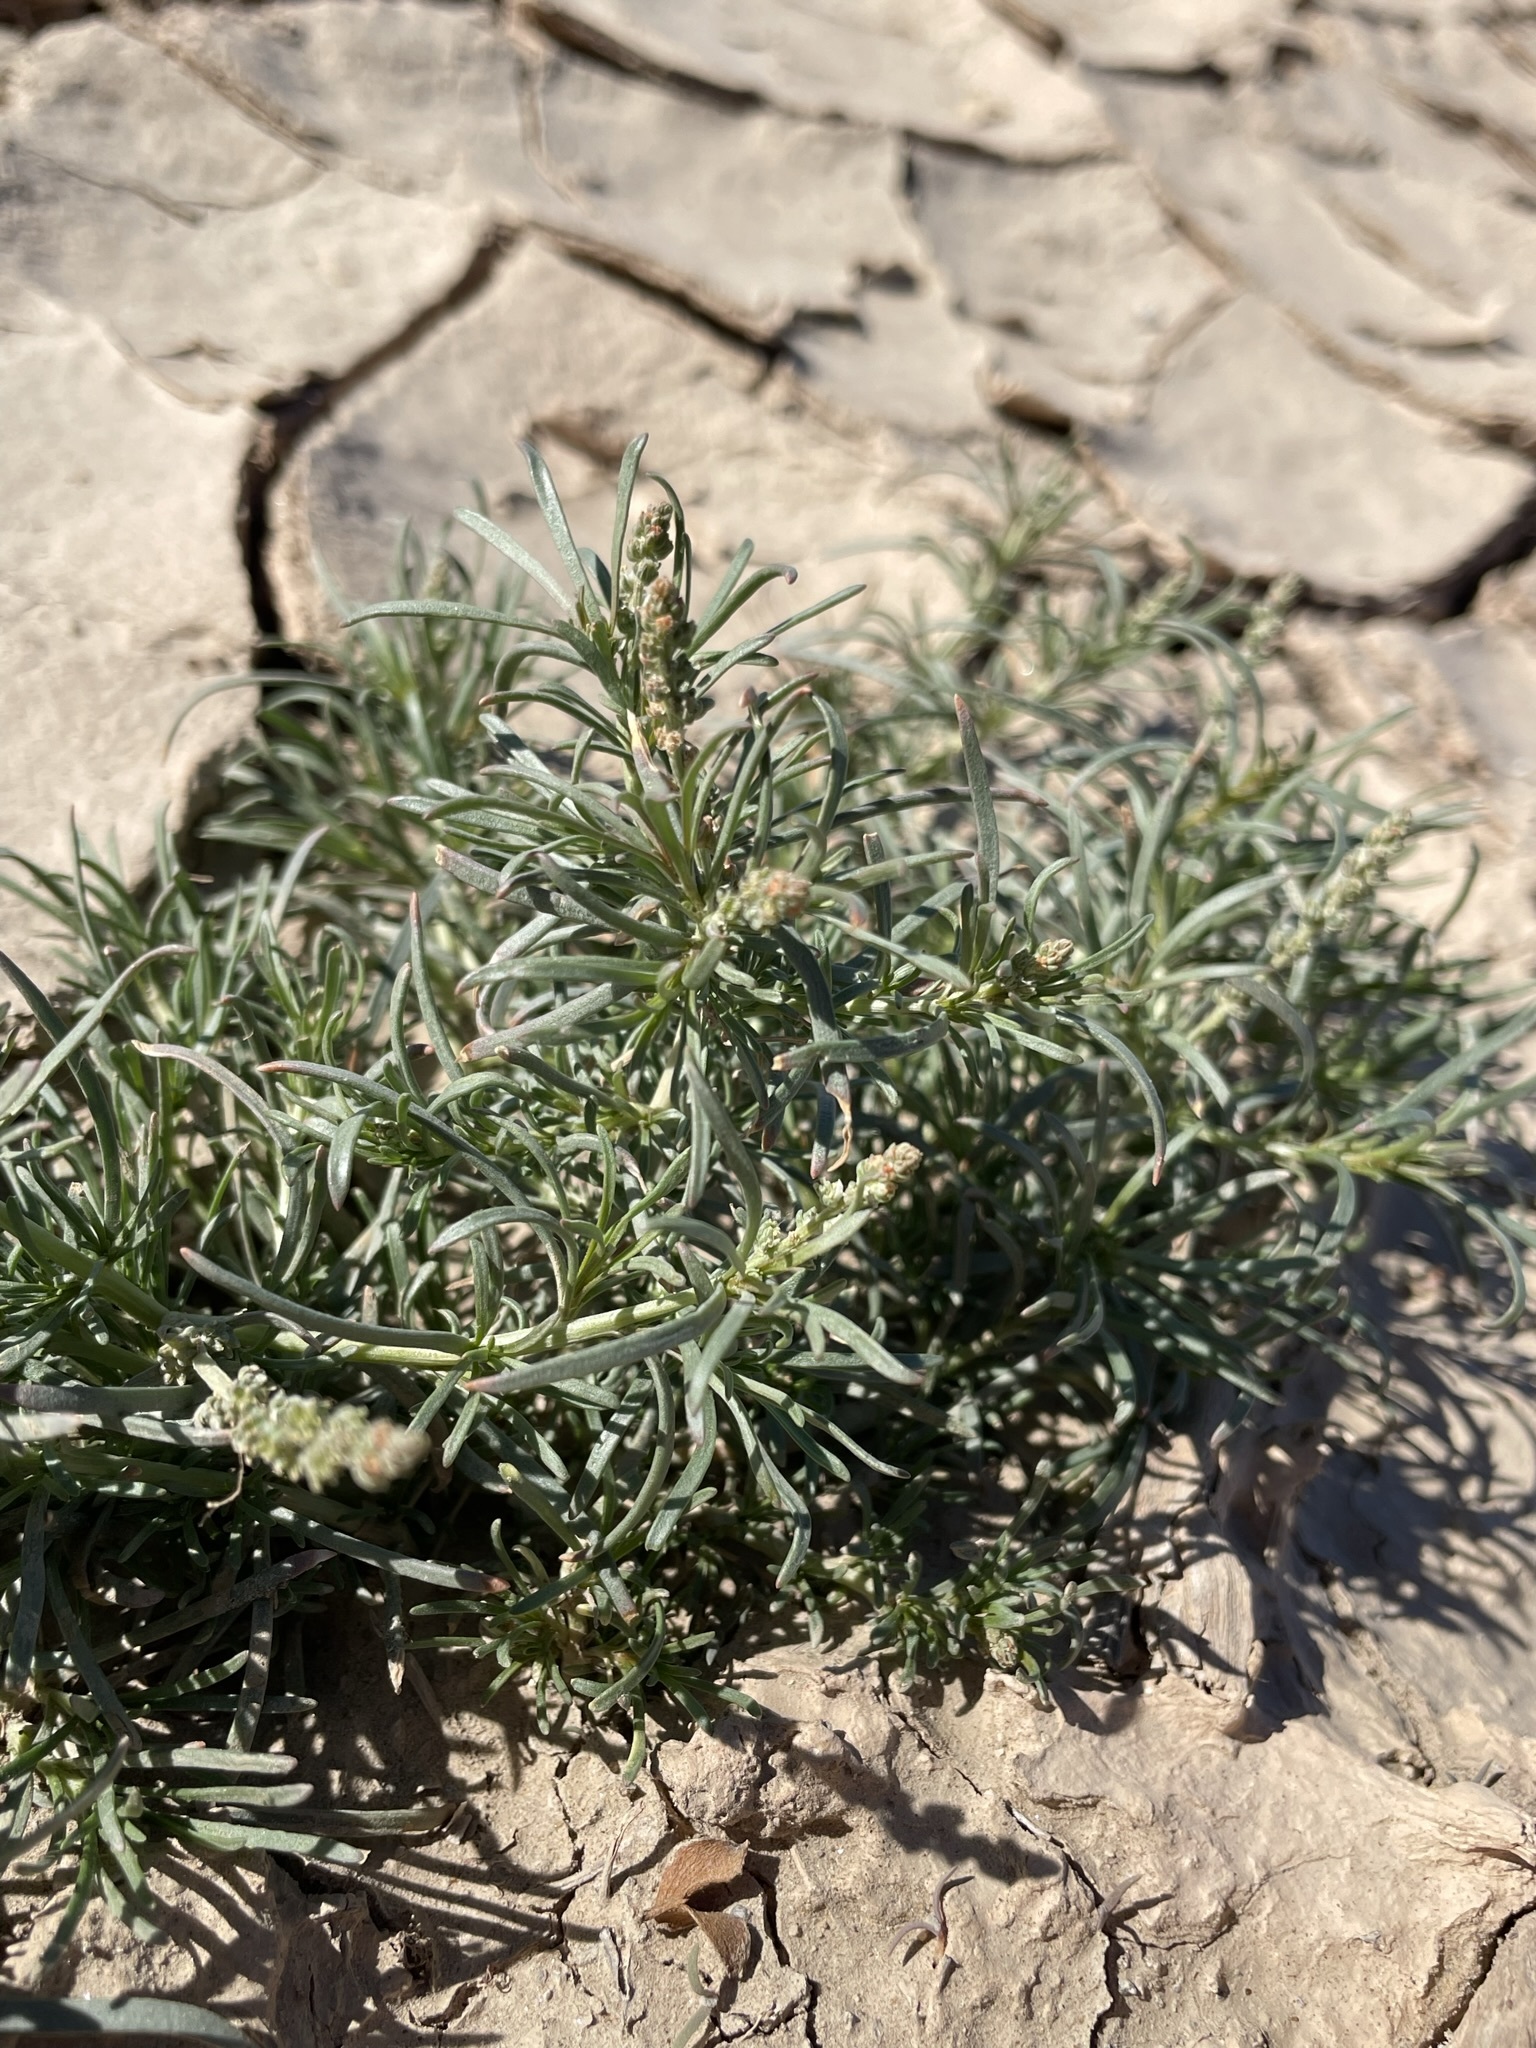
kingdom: Plantae
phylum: Tracheophyta
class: Magnoliopsida
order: Brassicales
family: Resedaceae
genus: Oligomeris
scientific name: Oligomeris linifolia
